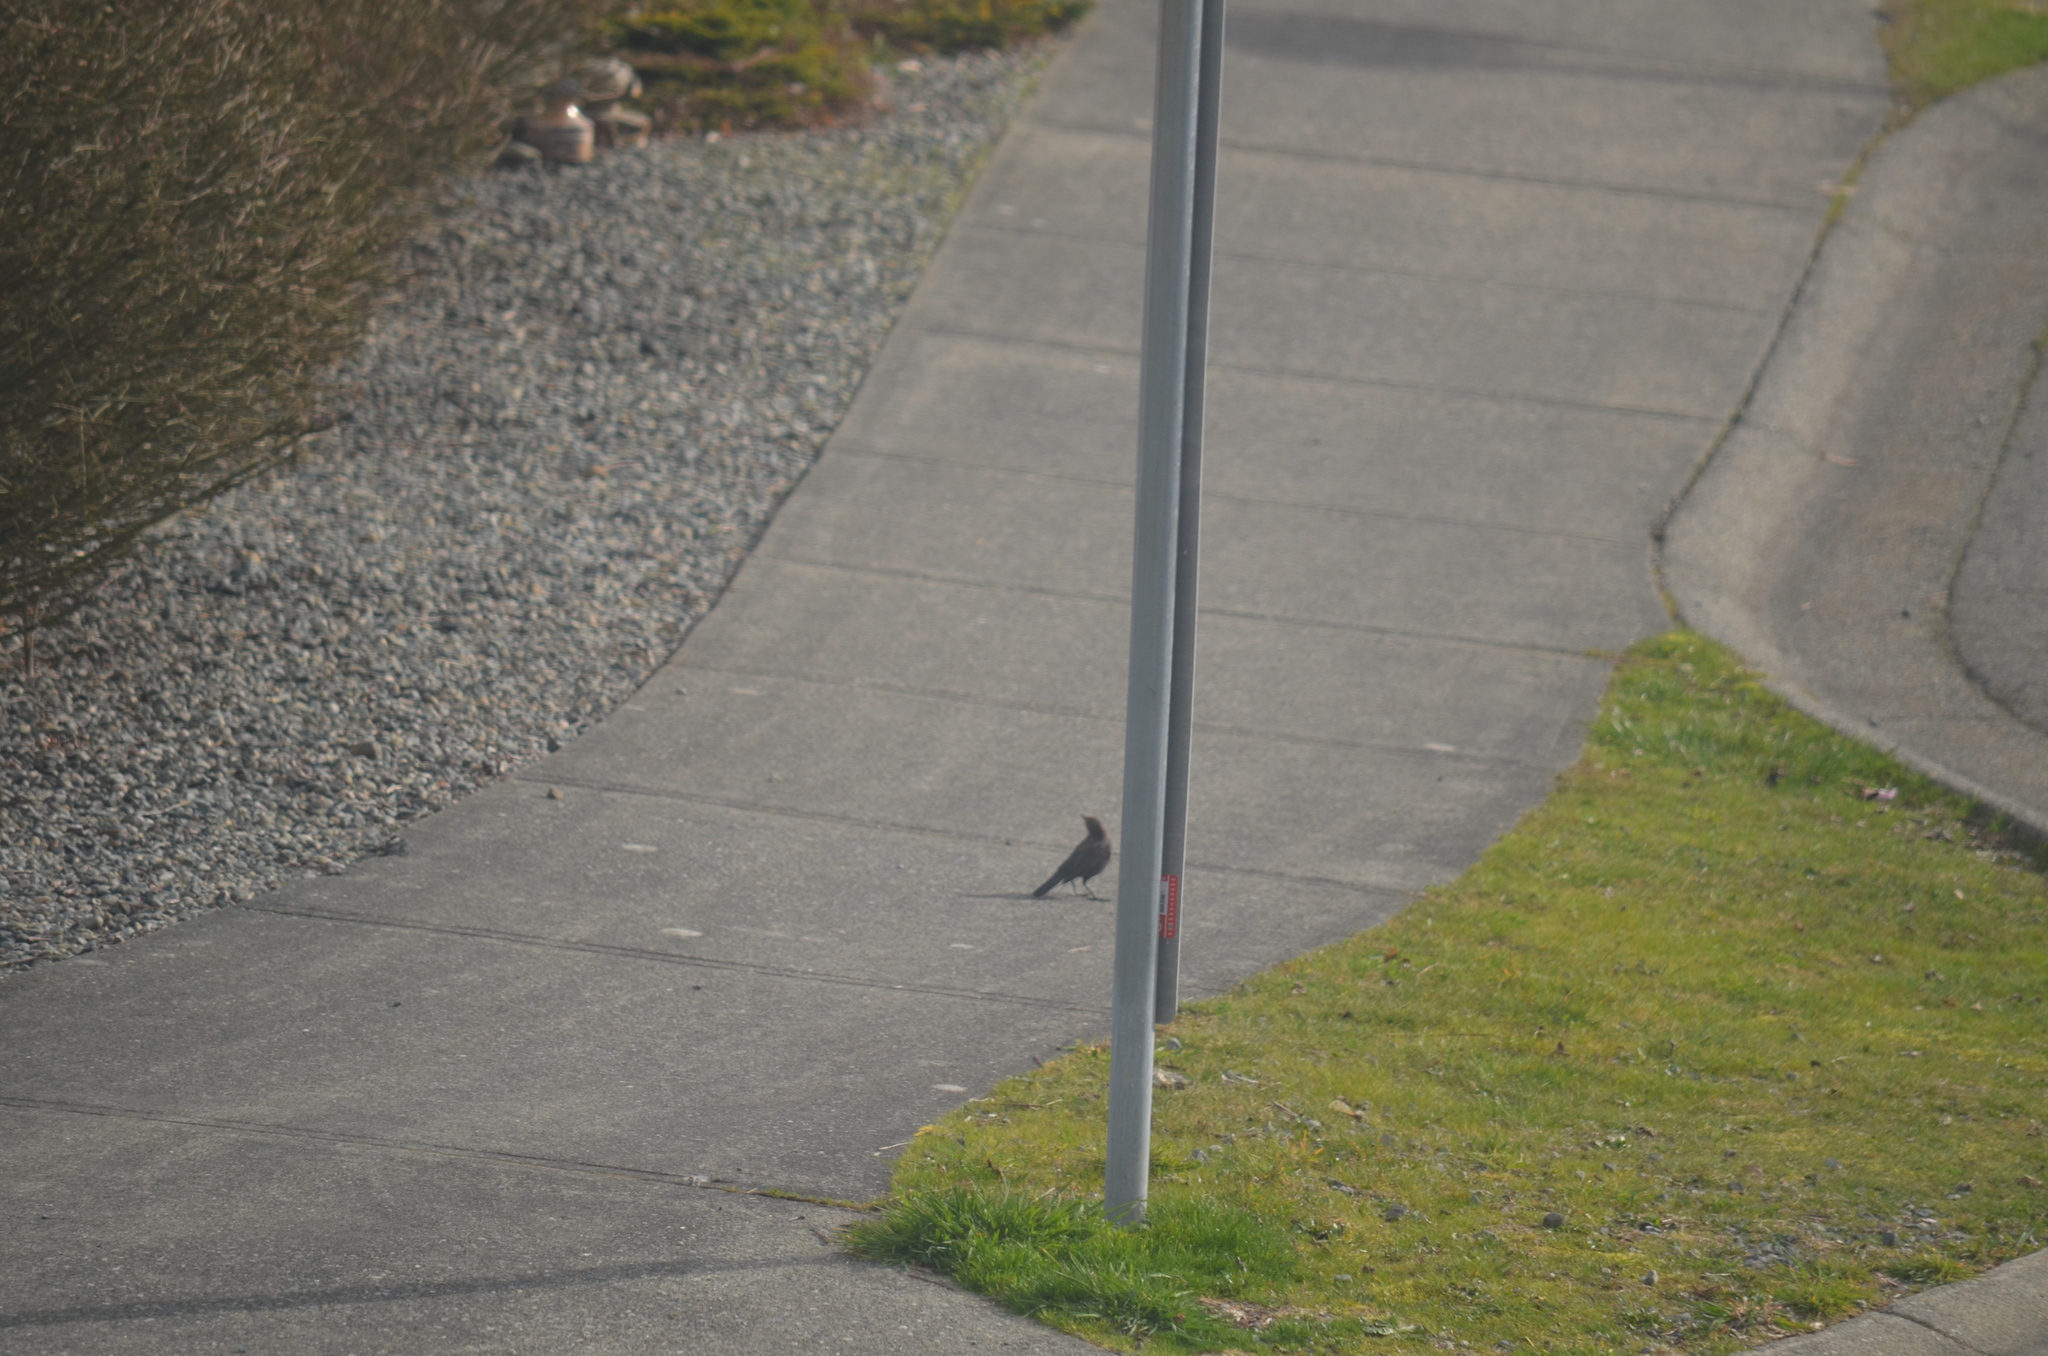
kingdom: Animalia
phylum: Chordata
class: Aves
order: Passeriformes
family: Icteridae
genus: Euphagus
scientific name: Euphagus cyanocephalus
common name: Brewer's blackbird
